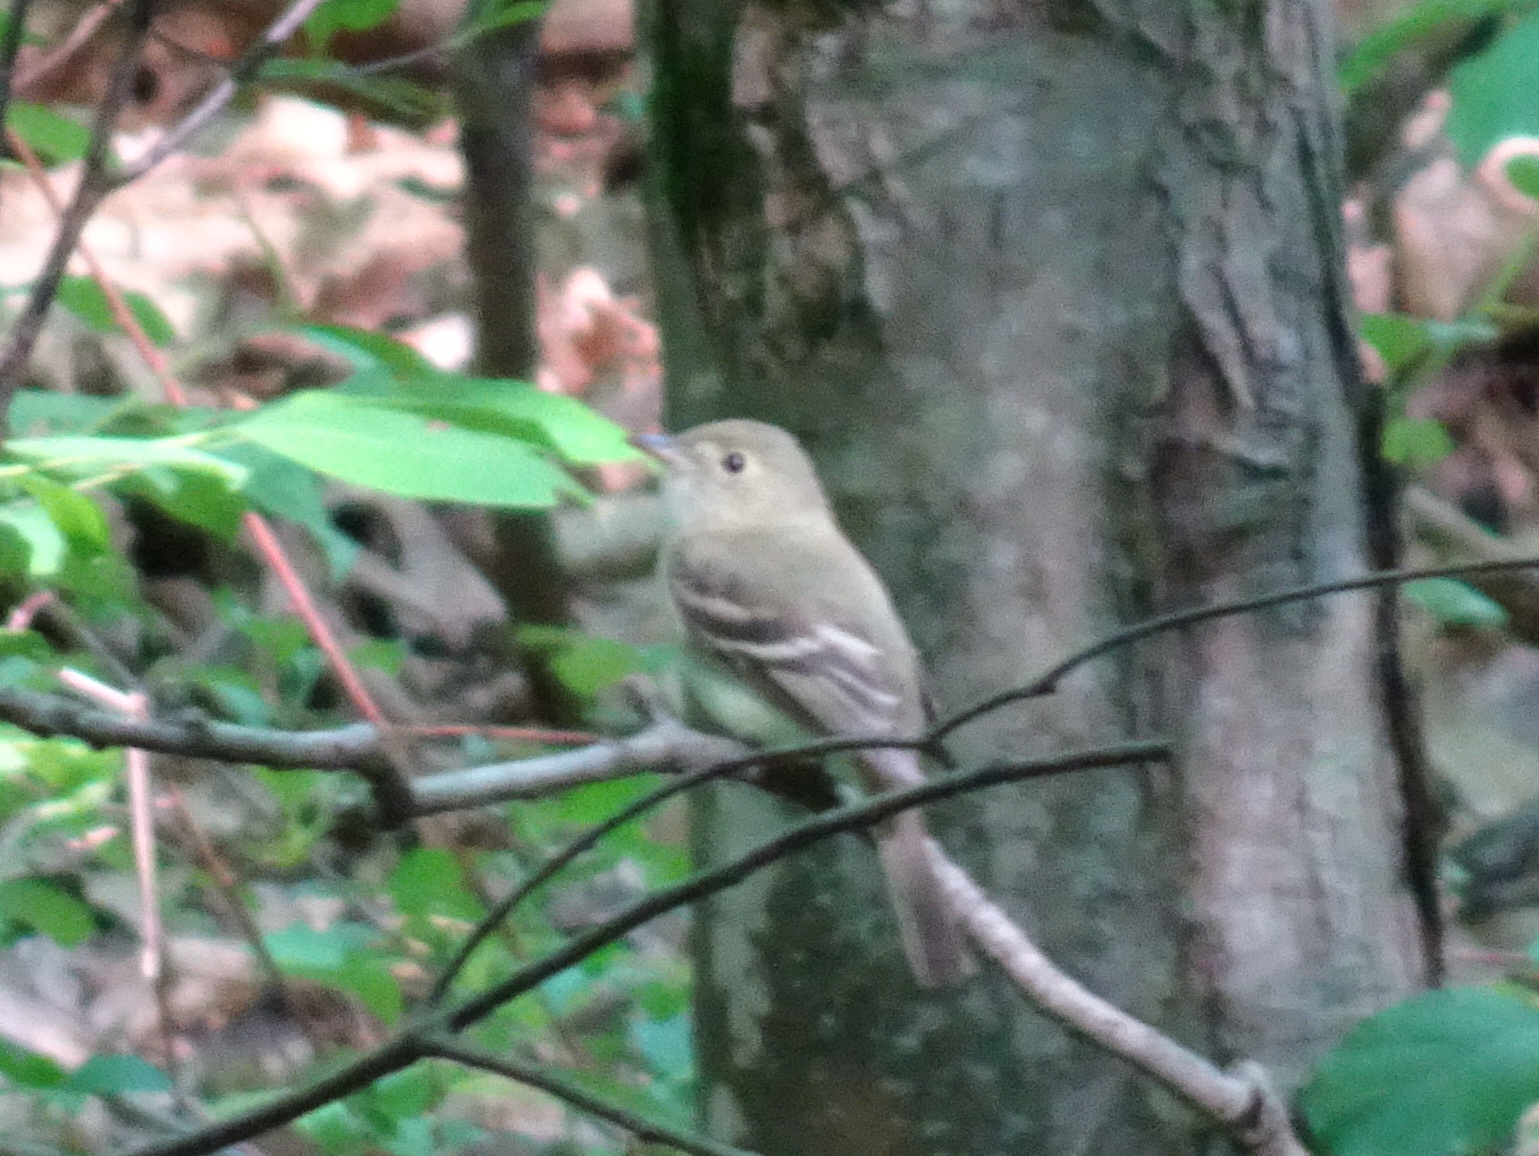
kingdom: Animalia
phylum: Chordata
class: Aves
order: Passeriformes
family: Tyrannidae
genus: Empidonax
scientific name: Empidonax minimus
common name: Least flycatcher
